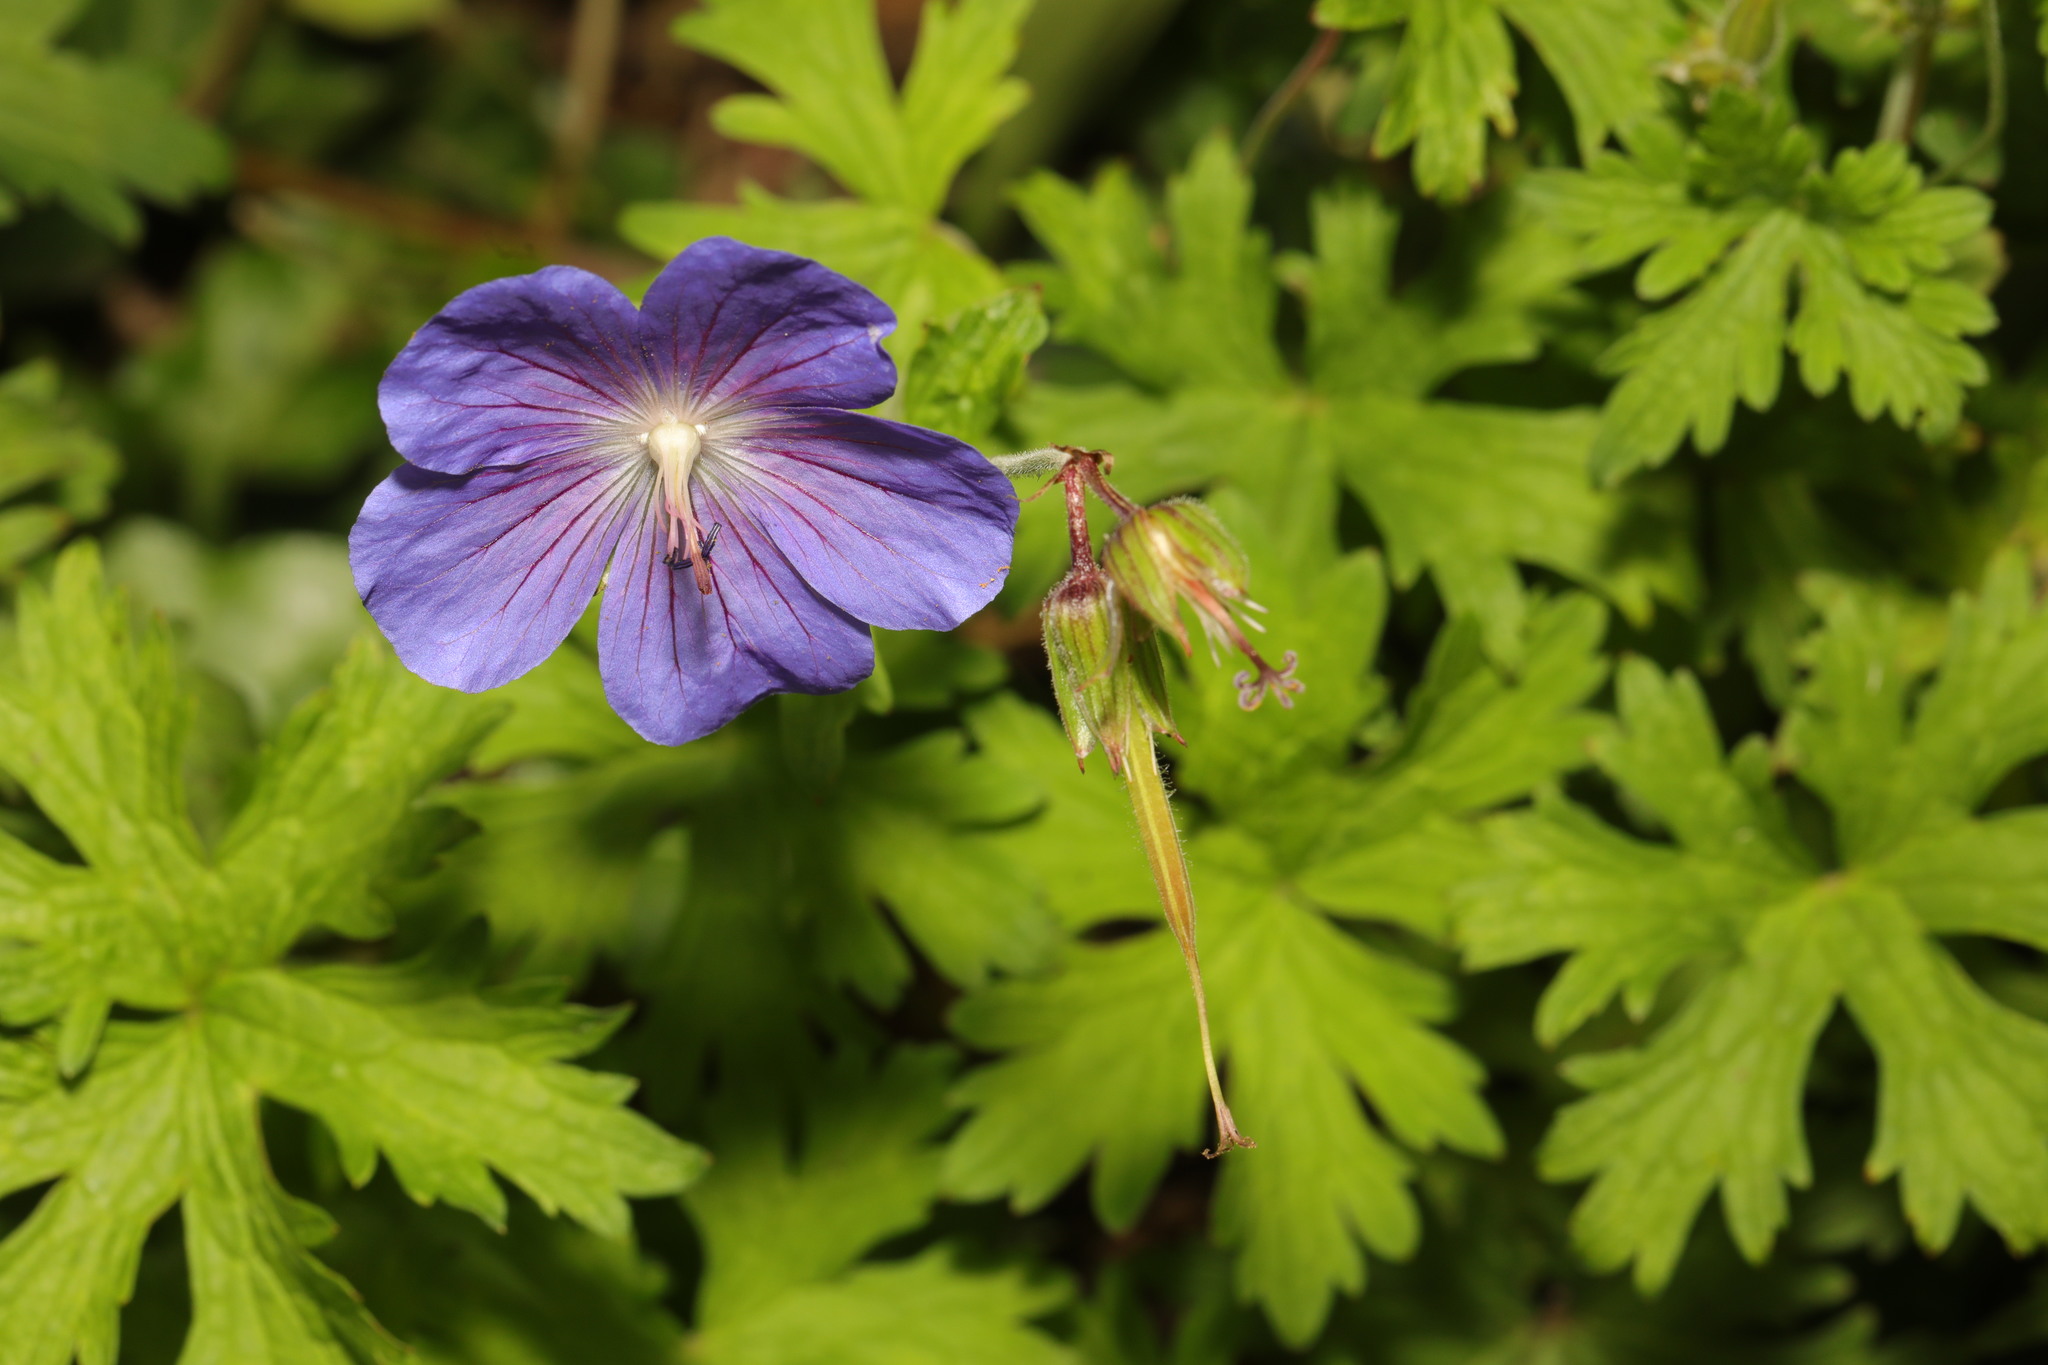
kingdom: Plantae
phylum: Tracheophyta
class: Magnoliopsida
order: Geraniales
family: Geraniaceae
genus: Geranium
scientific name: Geranium pratense
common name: Meadow crane's-bill
